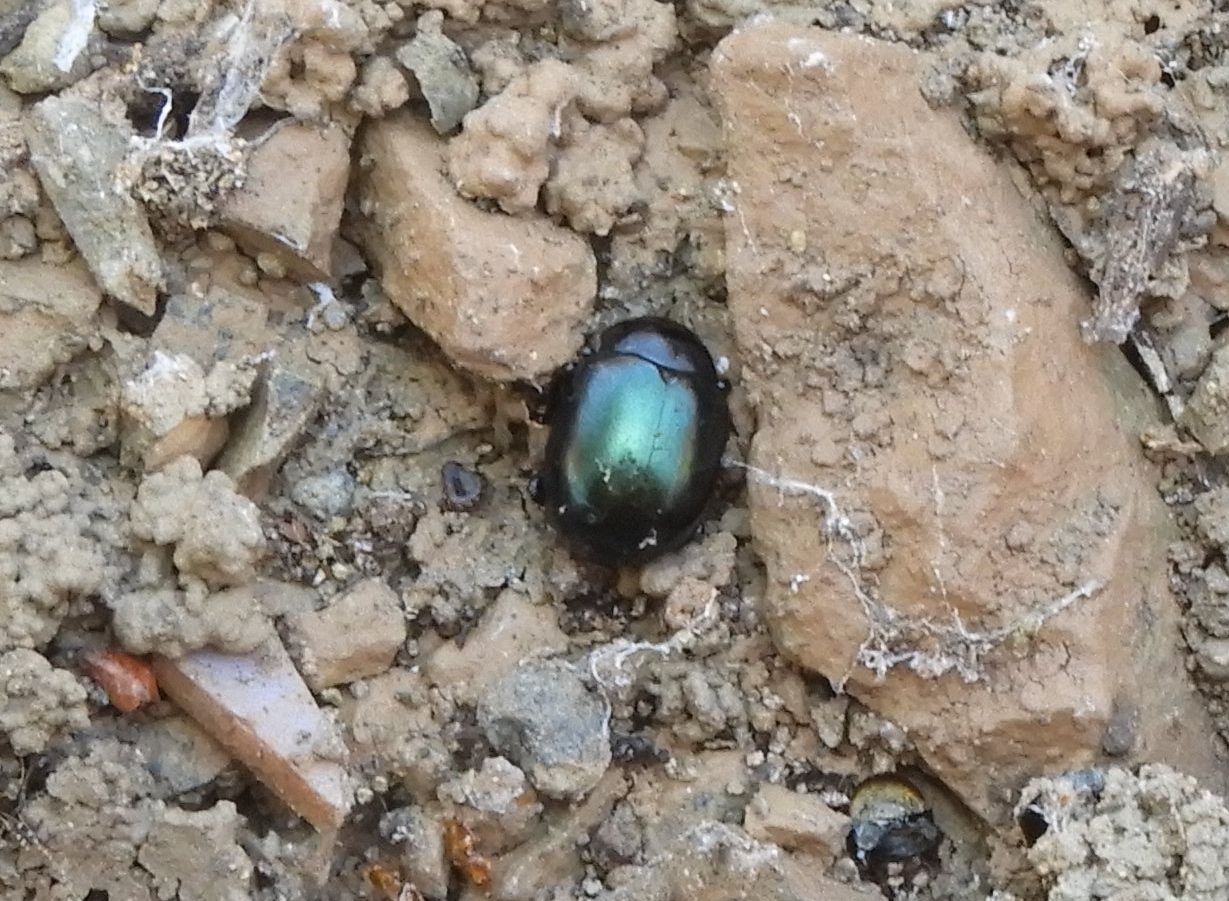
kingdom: Animalia
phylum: Arthropoda
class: Insecta
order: Coleoptera
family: Chrysomelidae
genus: Leptinotarsa
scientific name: Leptinotarsa haldemani
